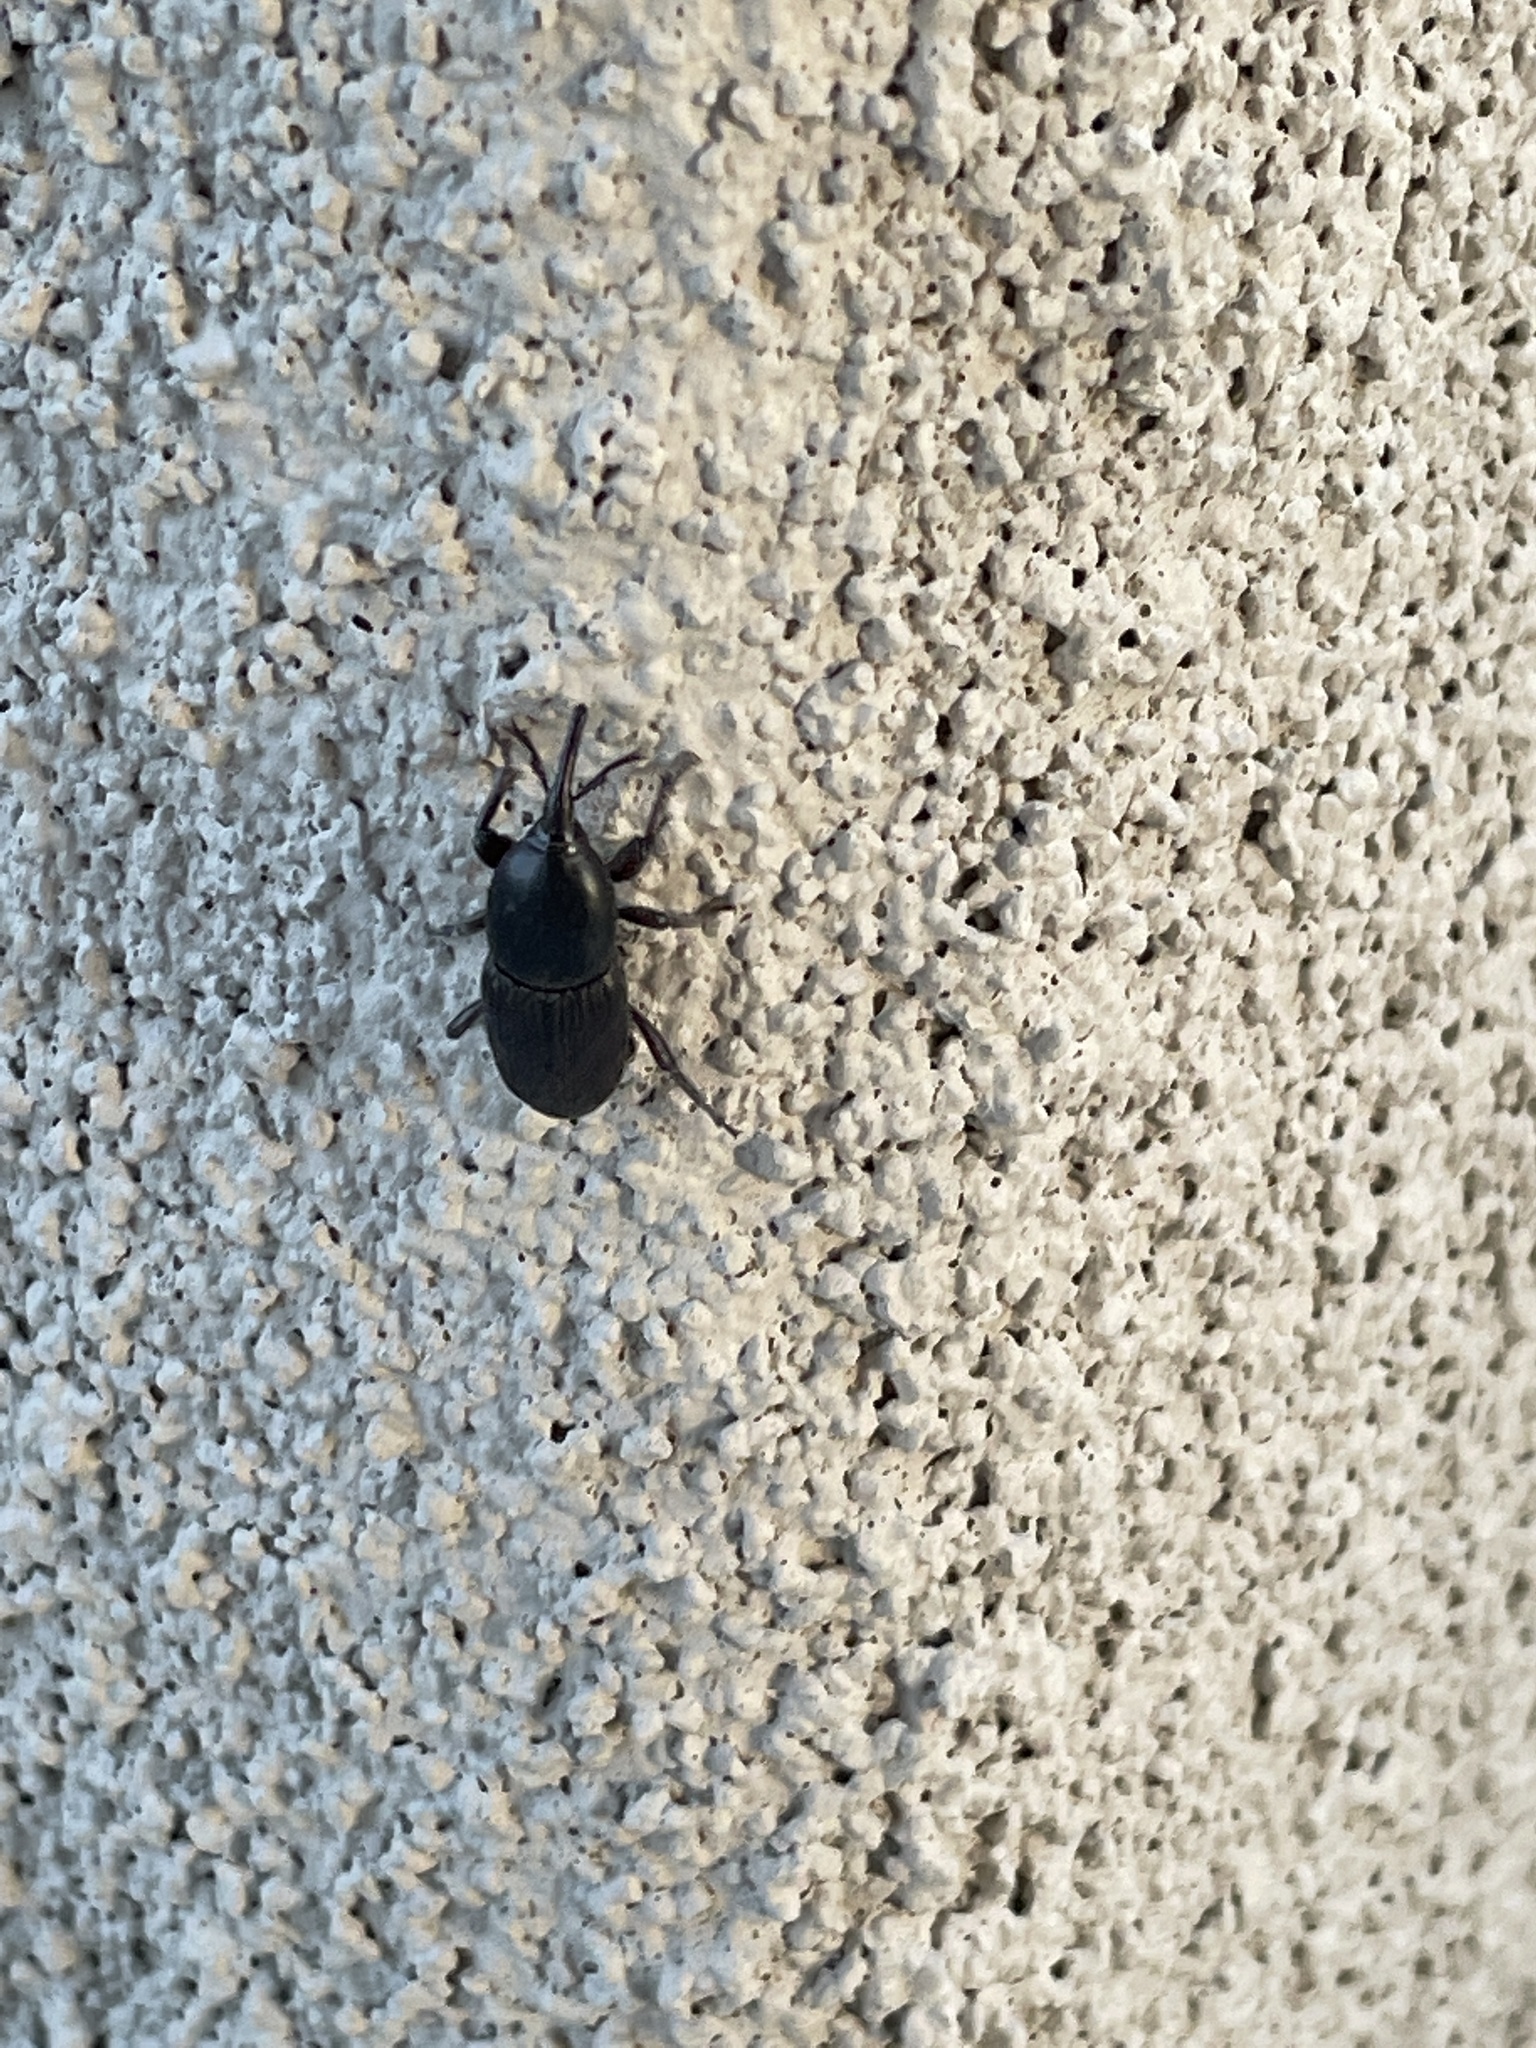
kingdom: Animalia
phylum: Arthropoda
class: Insecta
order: Coleoptera
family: Dryophthoridae
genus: Scyphophorus
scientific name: Scyphophorus acupunctatus
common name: Weevil
